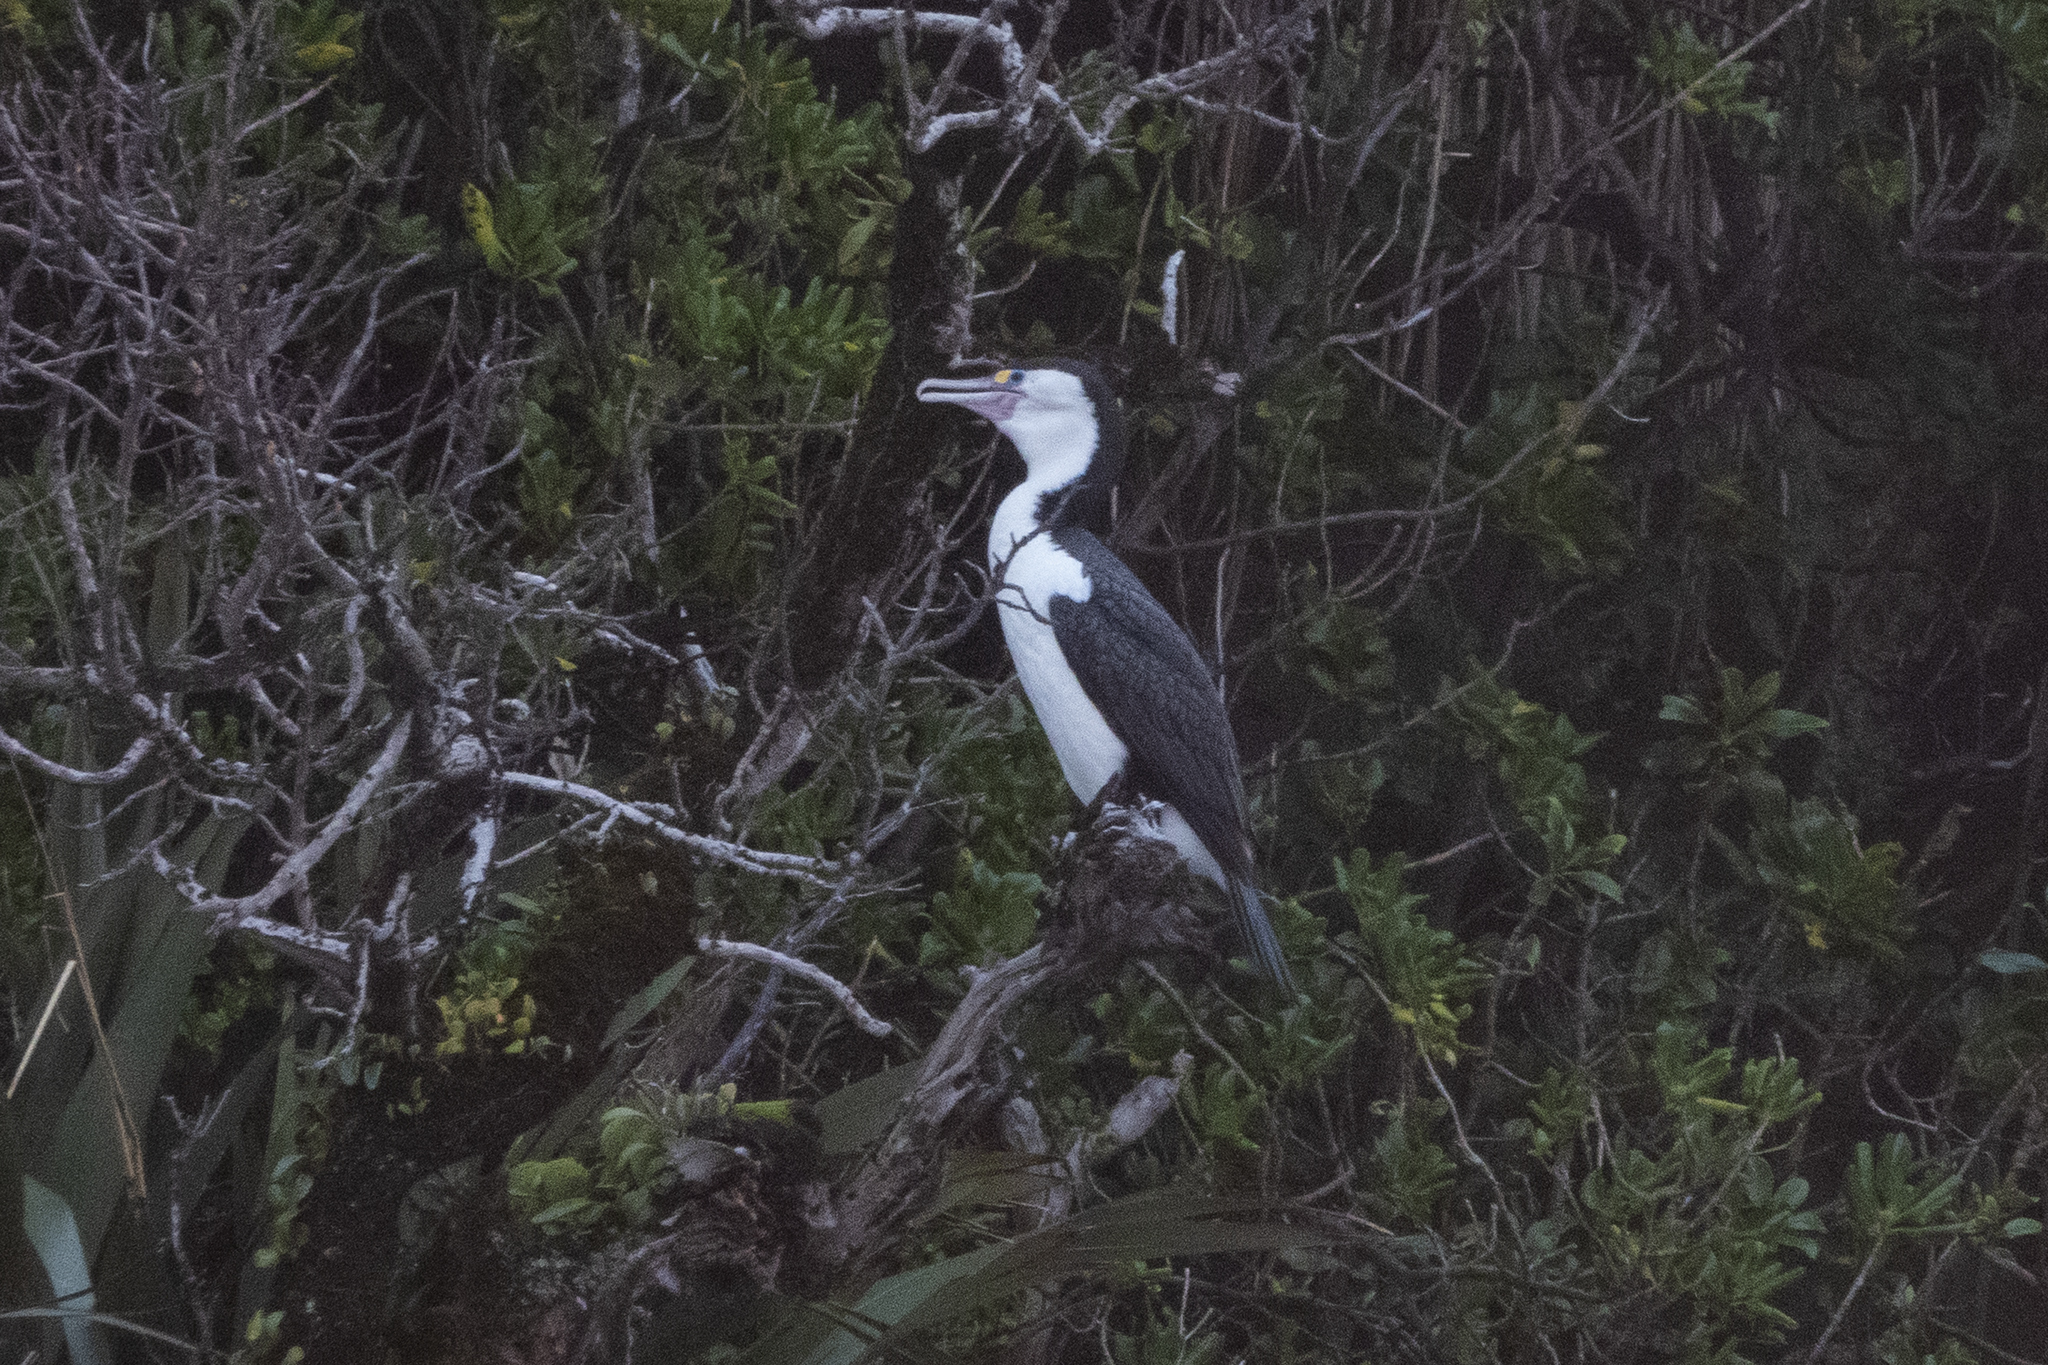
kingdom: Animalia
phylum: Chordata
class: Aves
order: Suliformes
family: Phalacrocoracidae
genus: Phalacrocorax
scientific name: Phalacrocorax varius
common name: Pied cormorant
